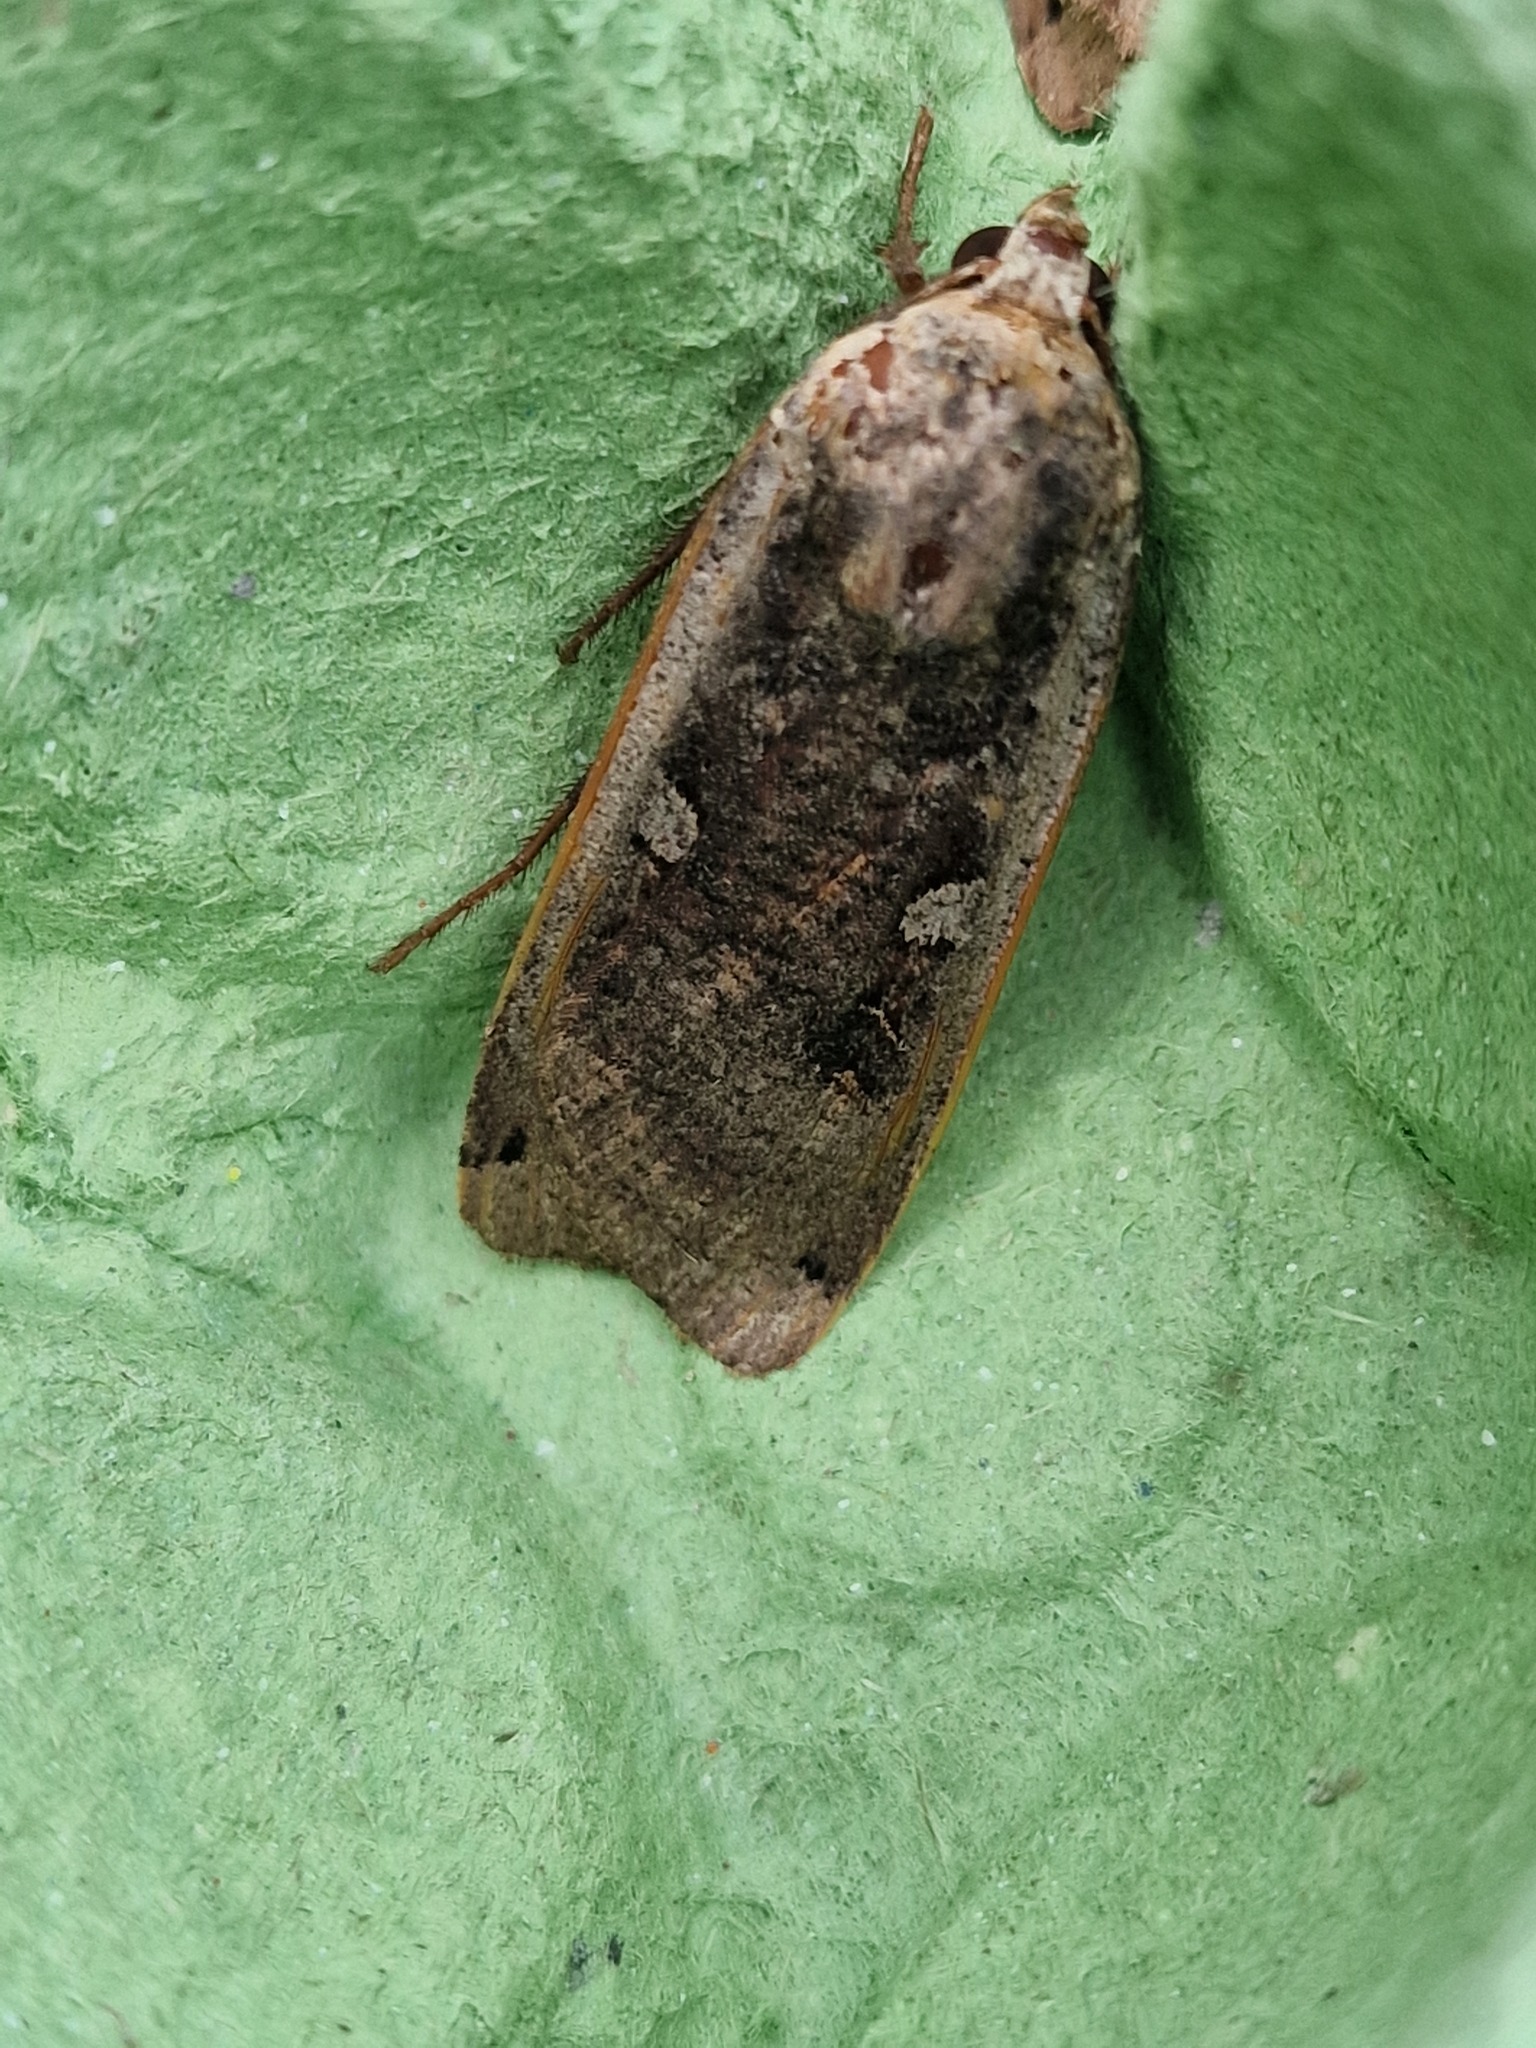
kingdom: Animalia
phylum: Arthropoda
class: Insecta
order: Lepidoptera
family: Noctuidae
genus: Noctua
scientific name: Noctua pronuba
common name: Large yellow underwing
